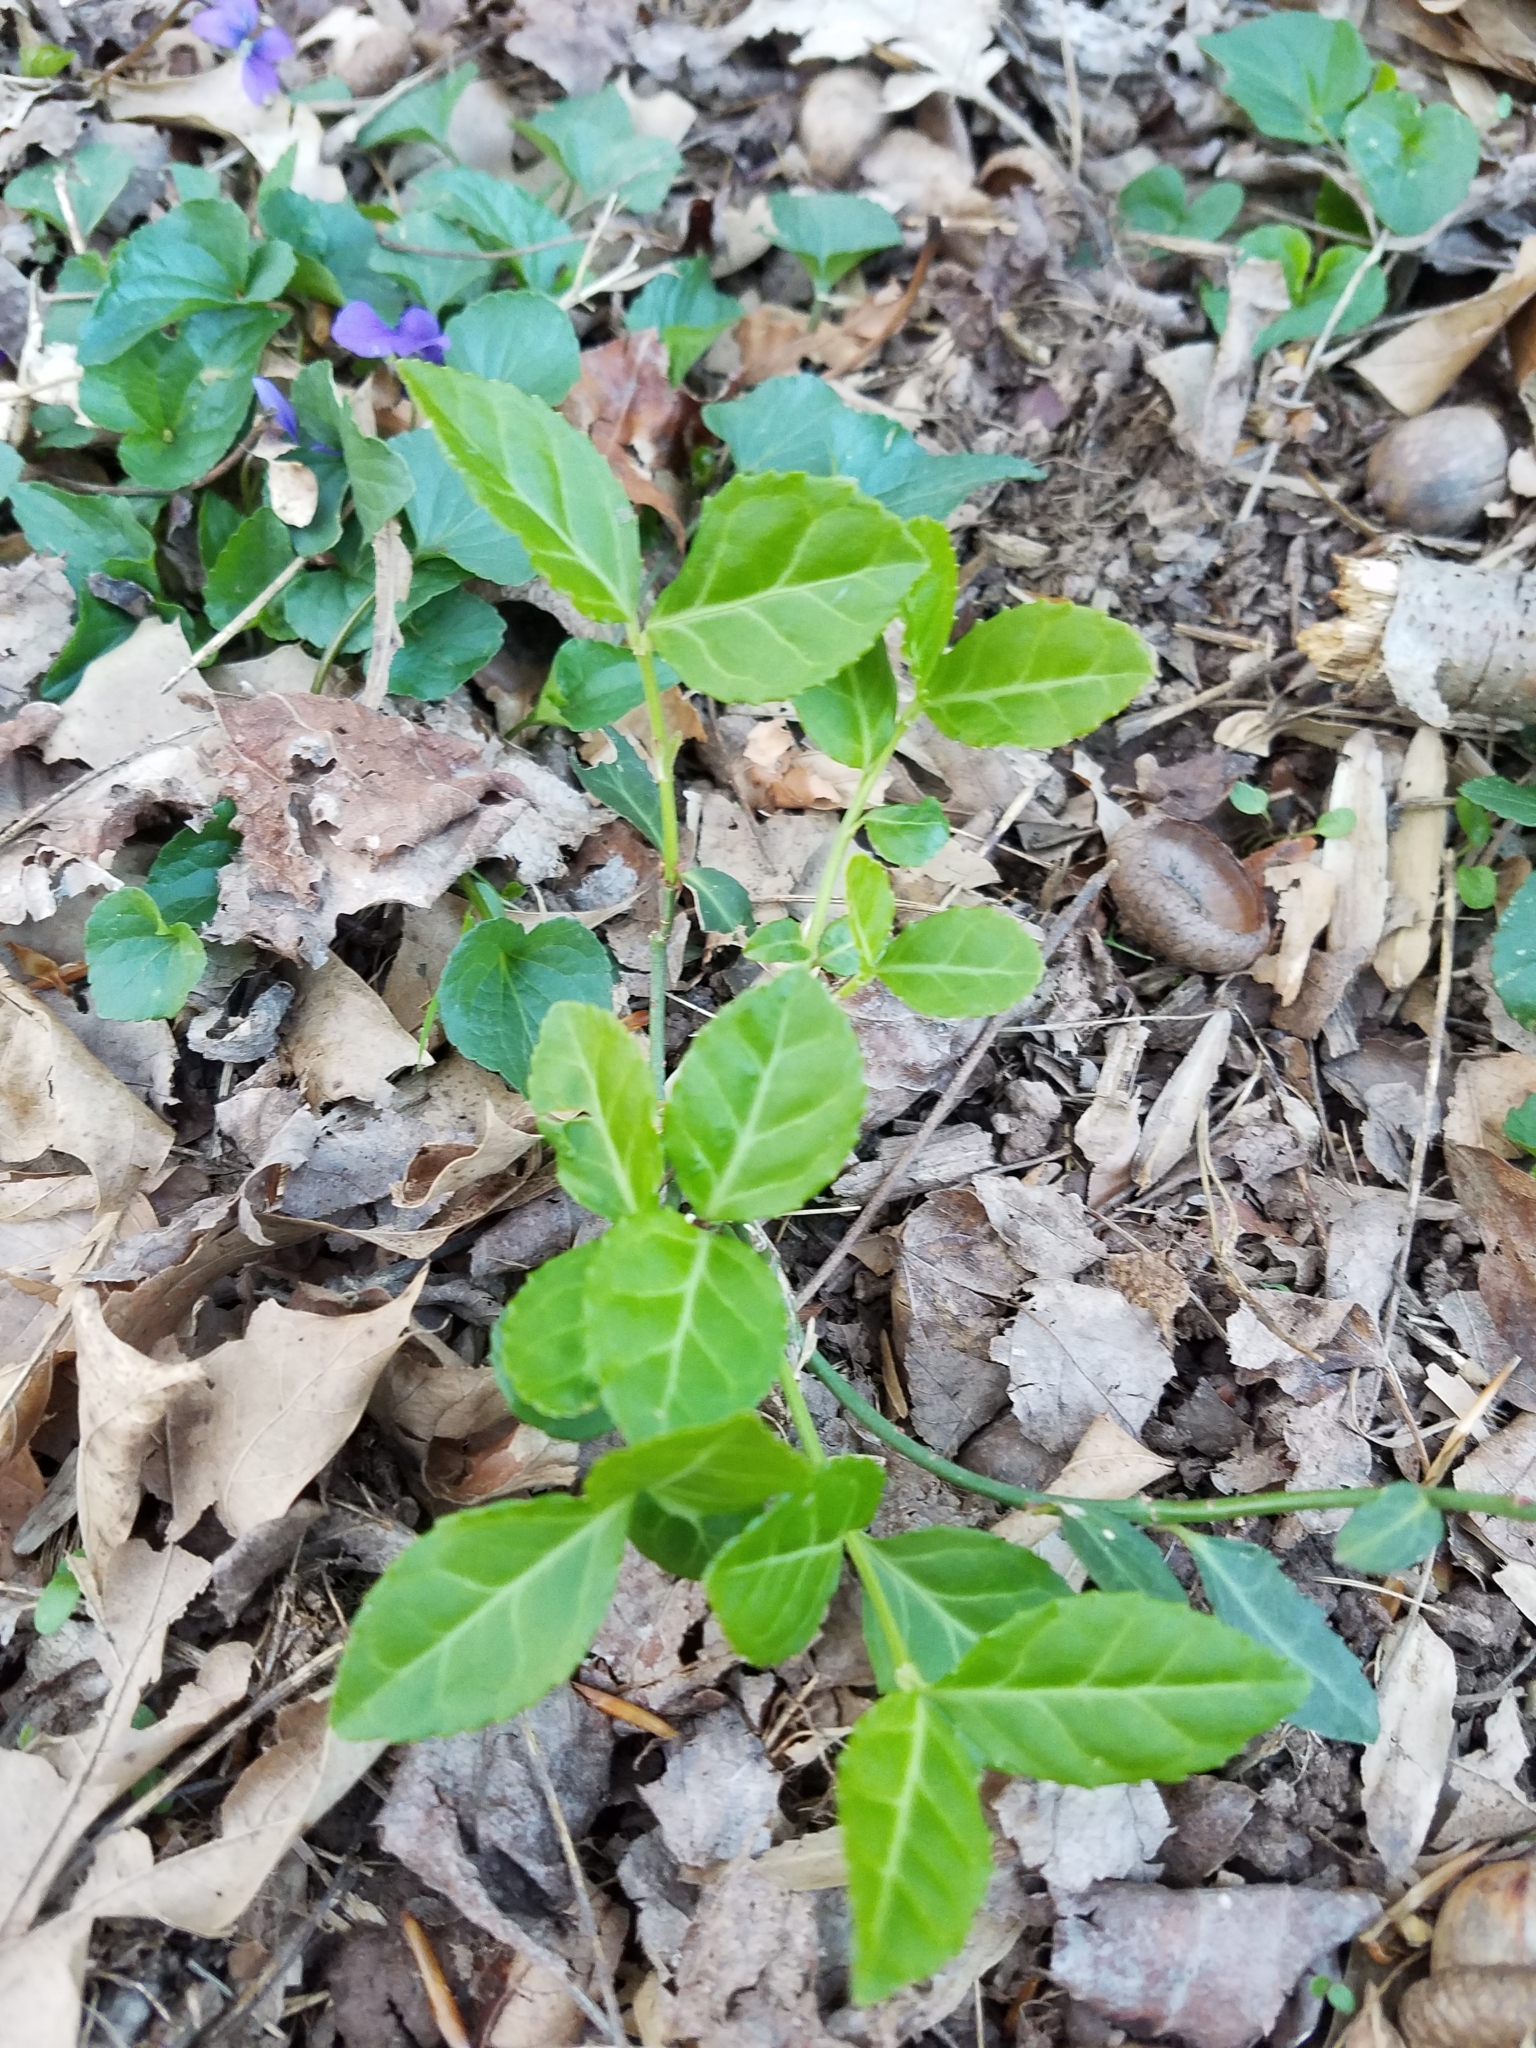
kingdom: Plantae
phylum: Tracheophyta
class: Magnoliopsida
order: Celastrales
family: Celastraceae
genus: Euonymus
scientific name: Euonymus fortunei
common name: Climbing euonymus
